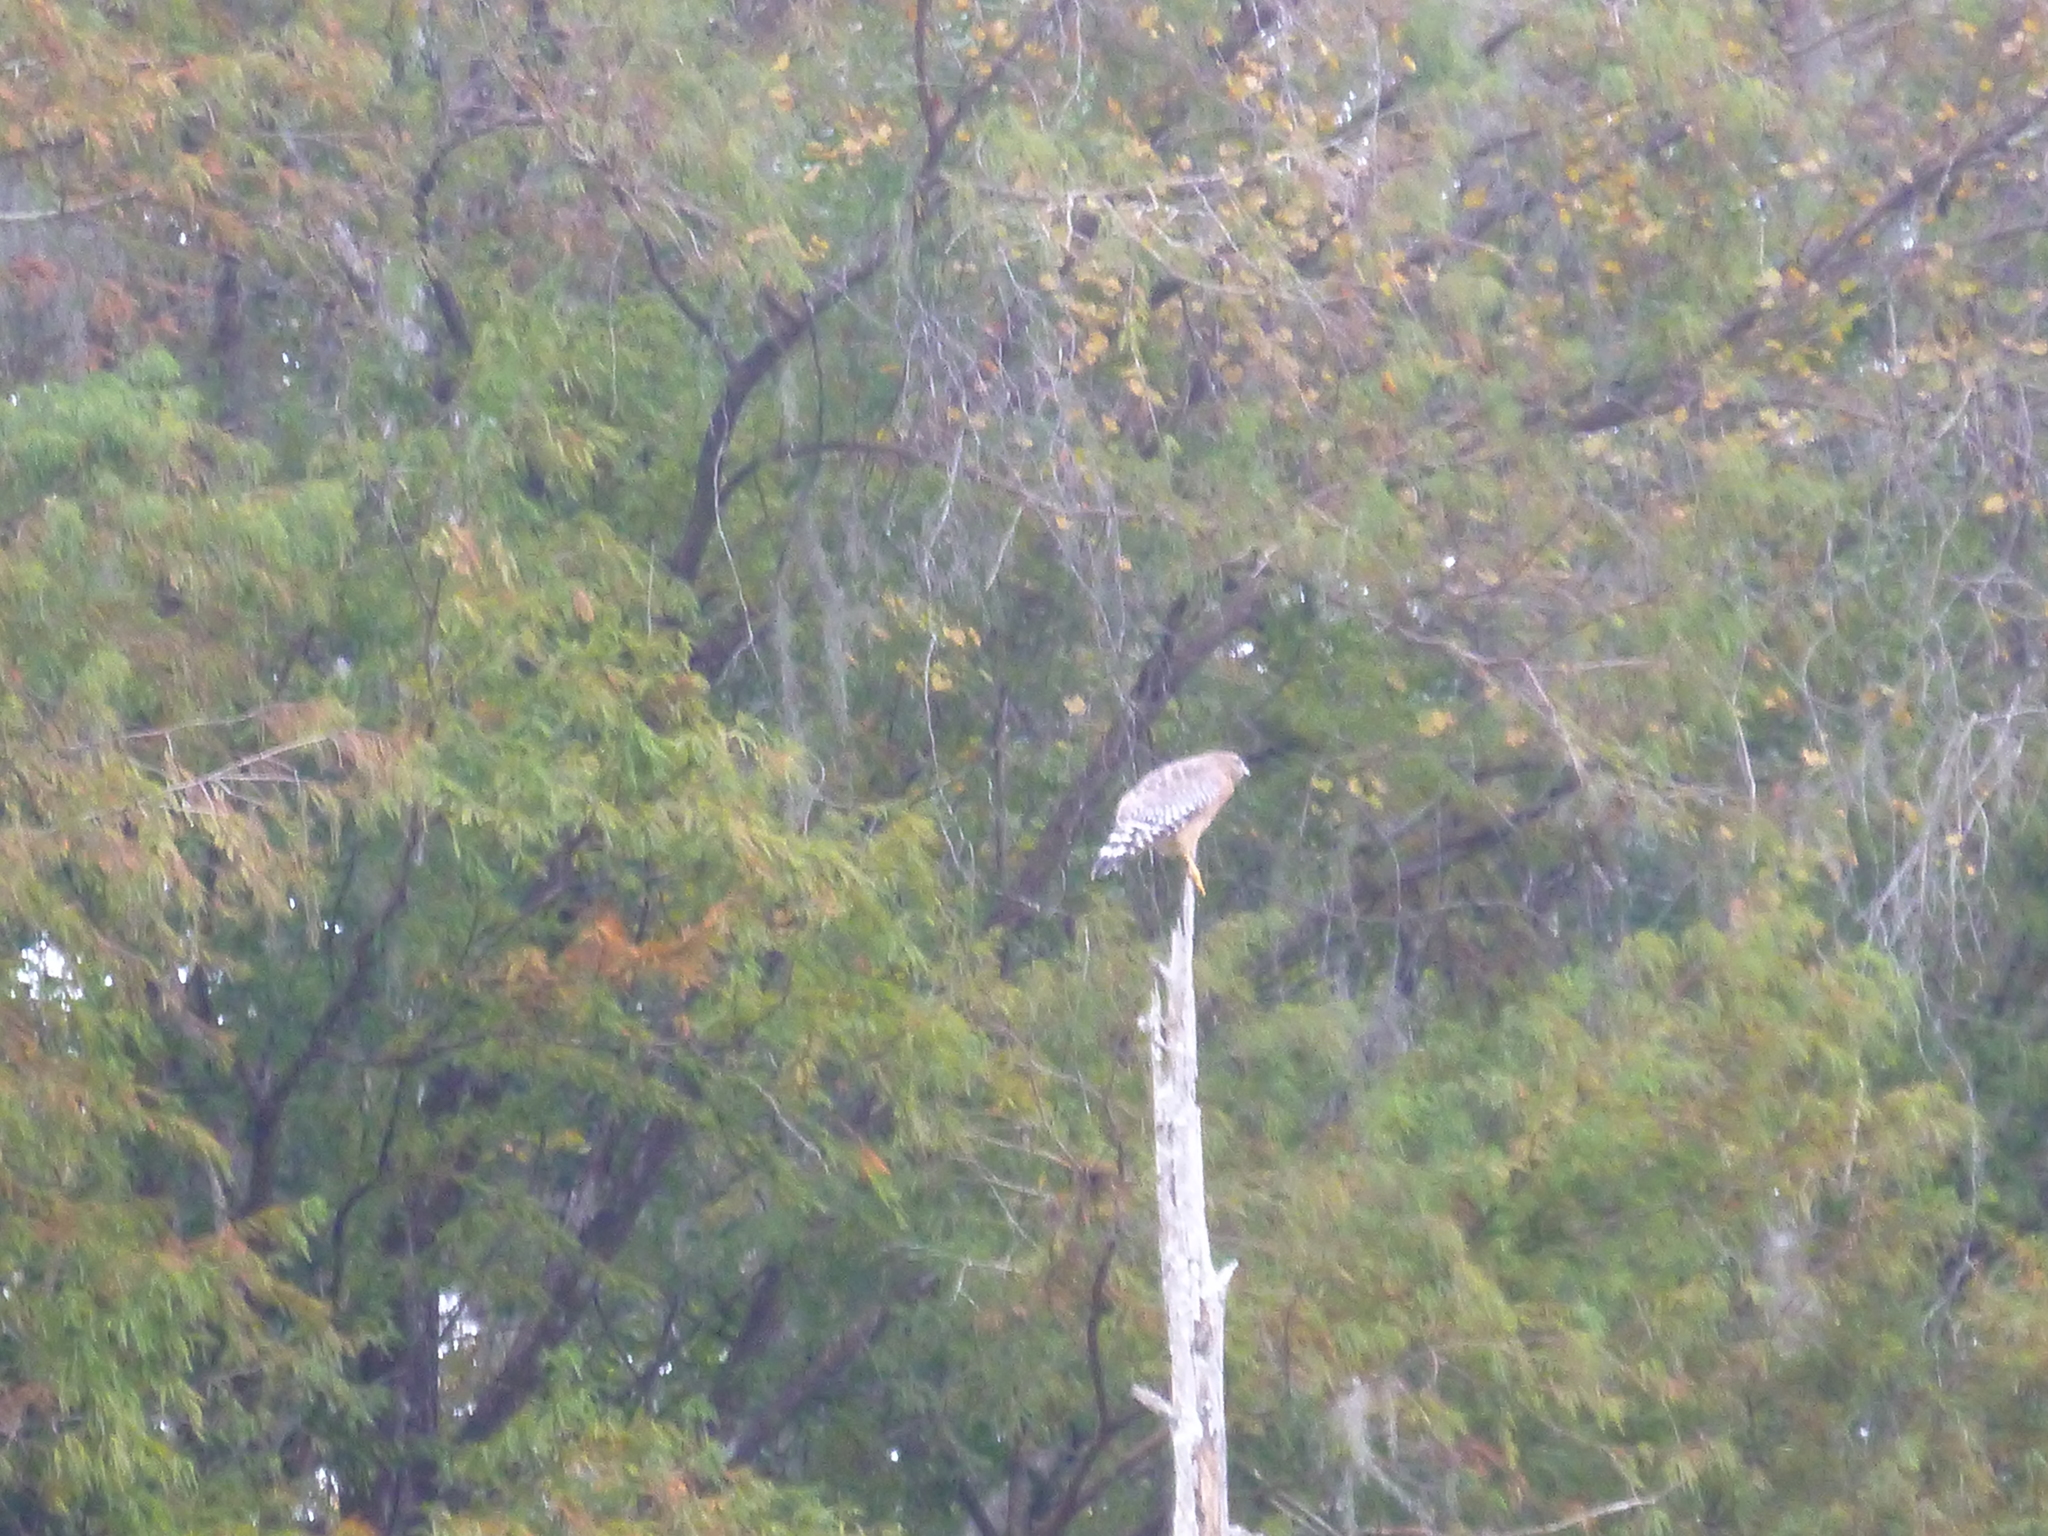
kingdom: Animalia
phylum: Chordata
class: Aves
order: Accipitriformes
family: Accipitridae
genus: Buteo
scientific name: Buteo lineatus
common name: Red-shouldered hawk
